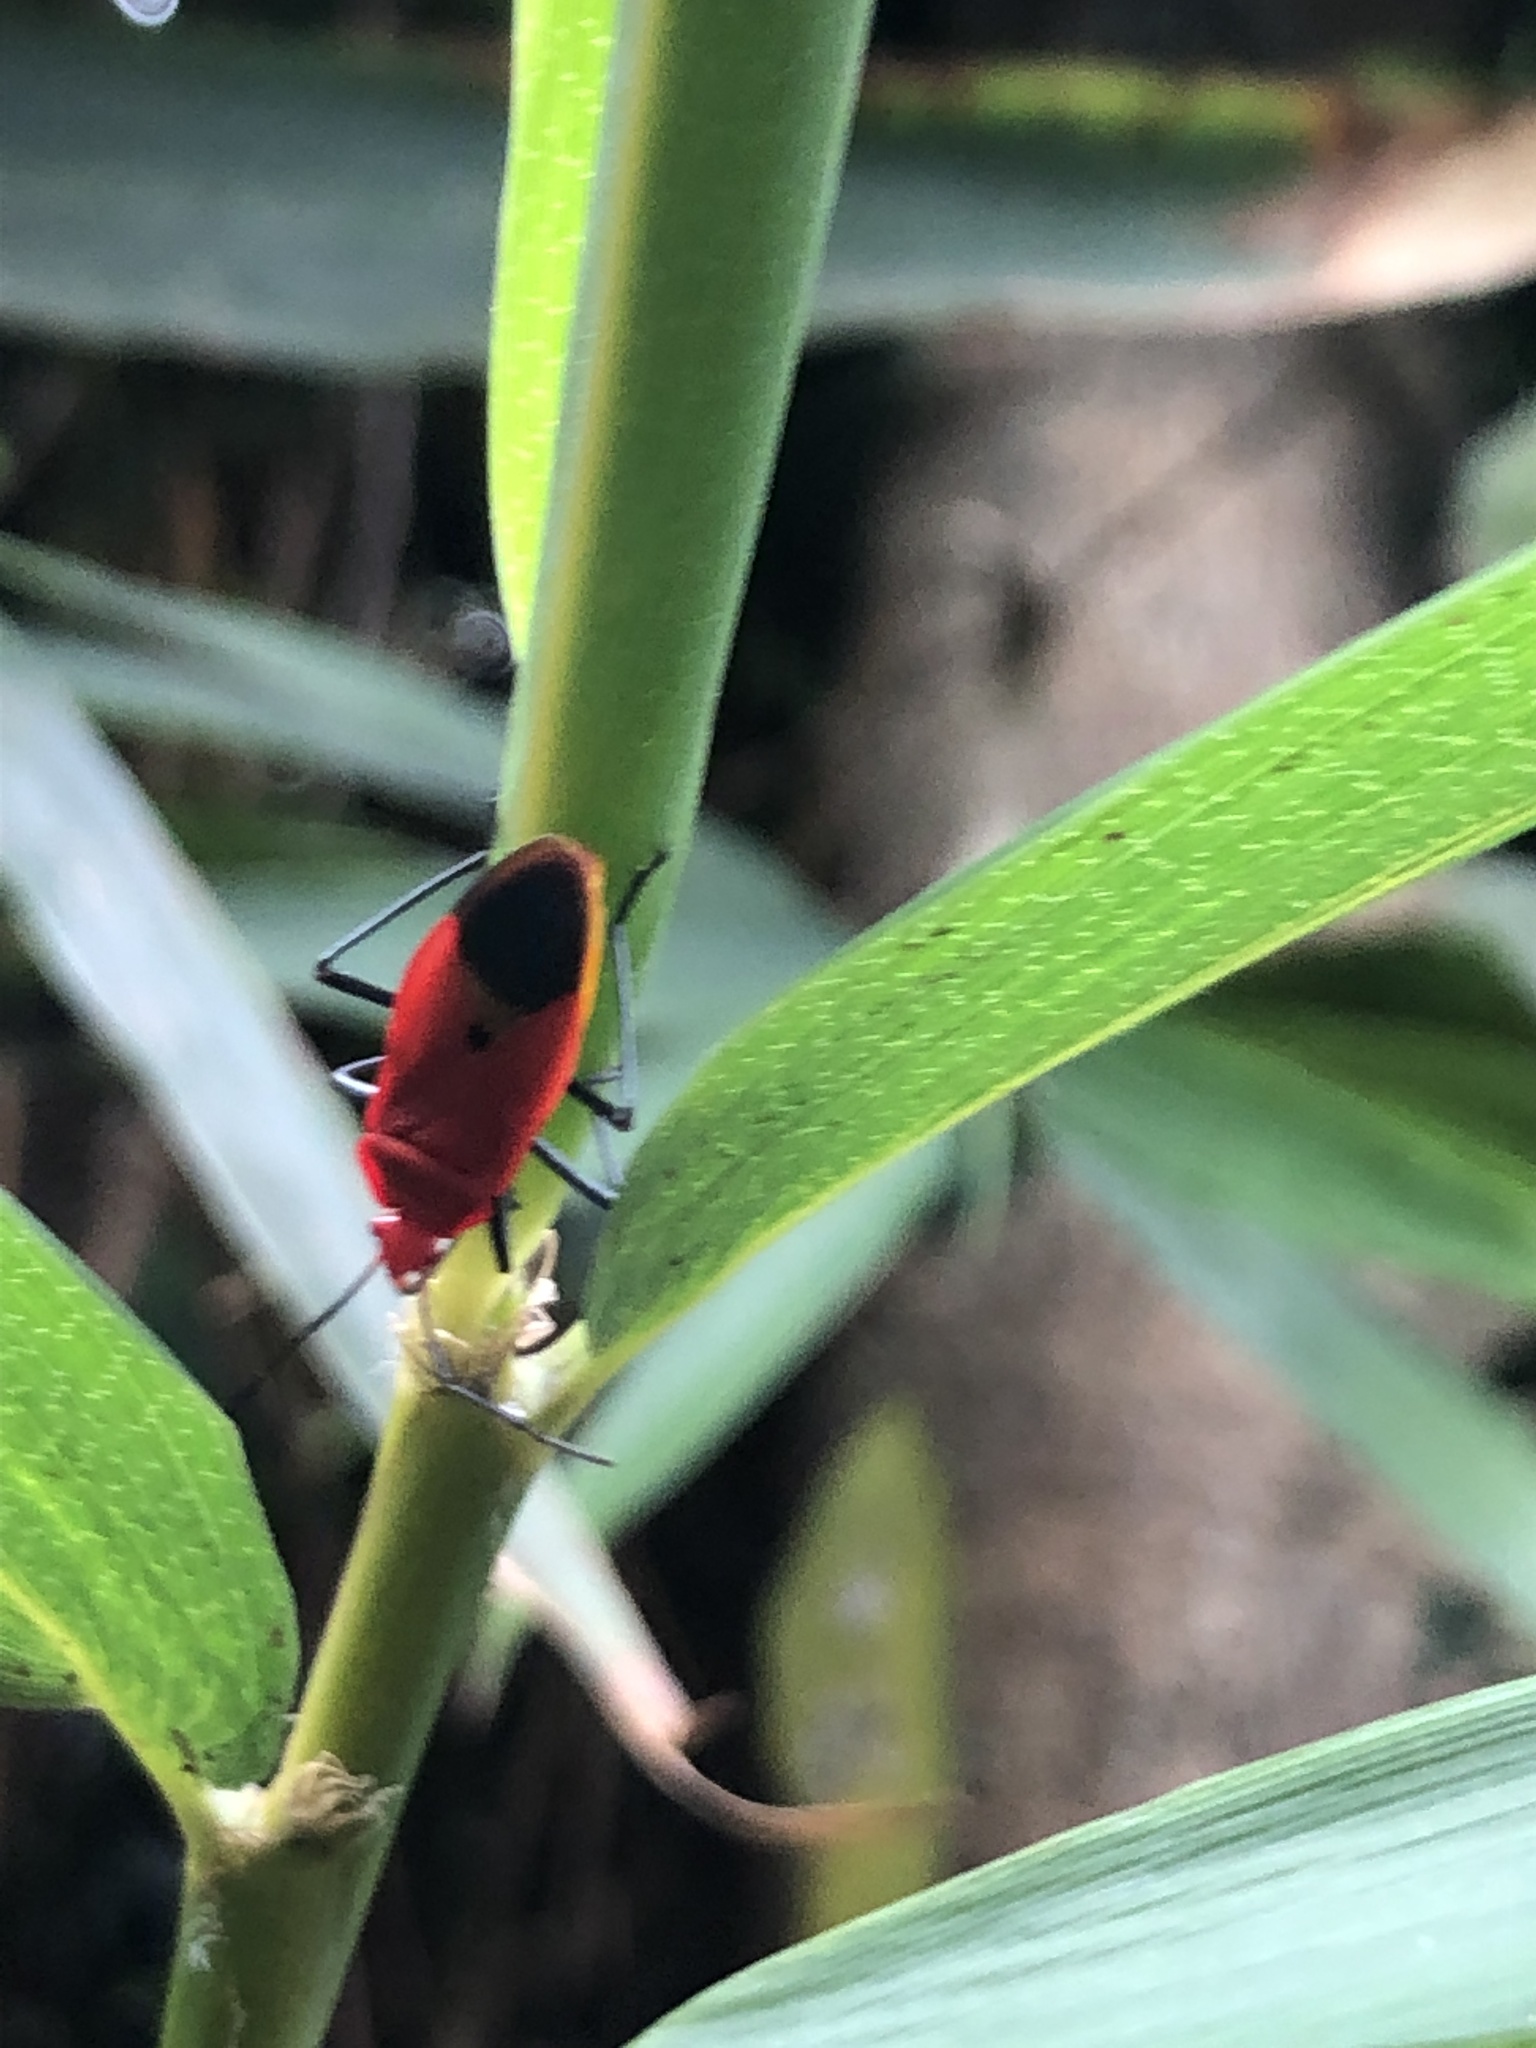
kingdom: Animalia
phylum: Arthropoda
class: Insecta
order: Hemiptera
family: Pyrrhocoridae
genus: Dindymus
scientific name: Dindymus
